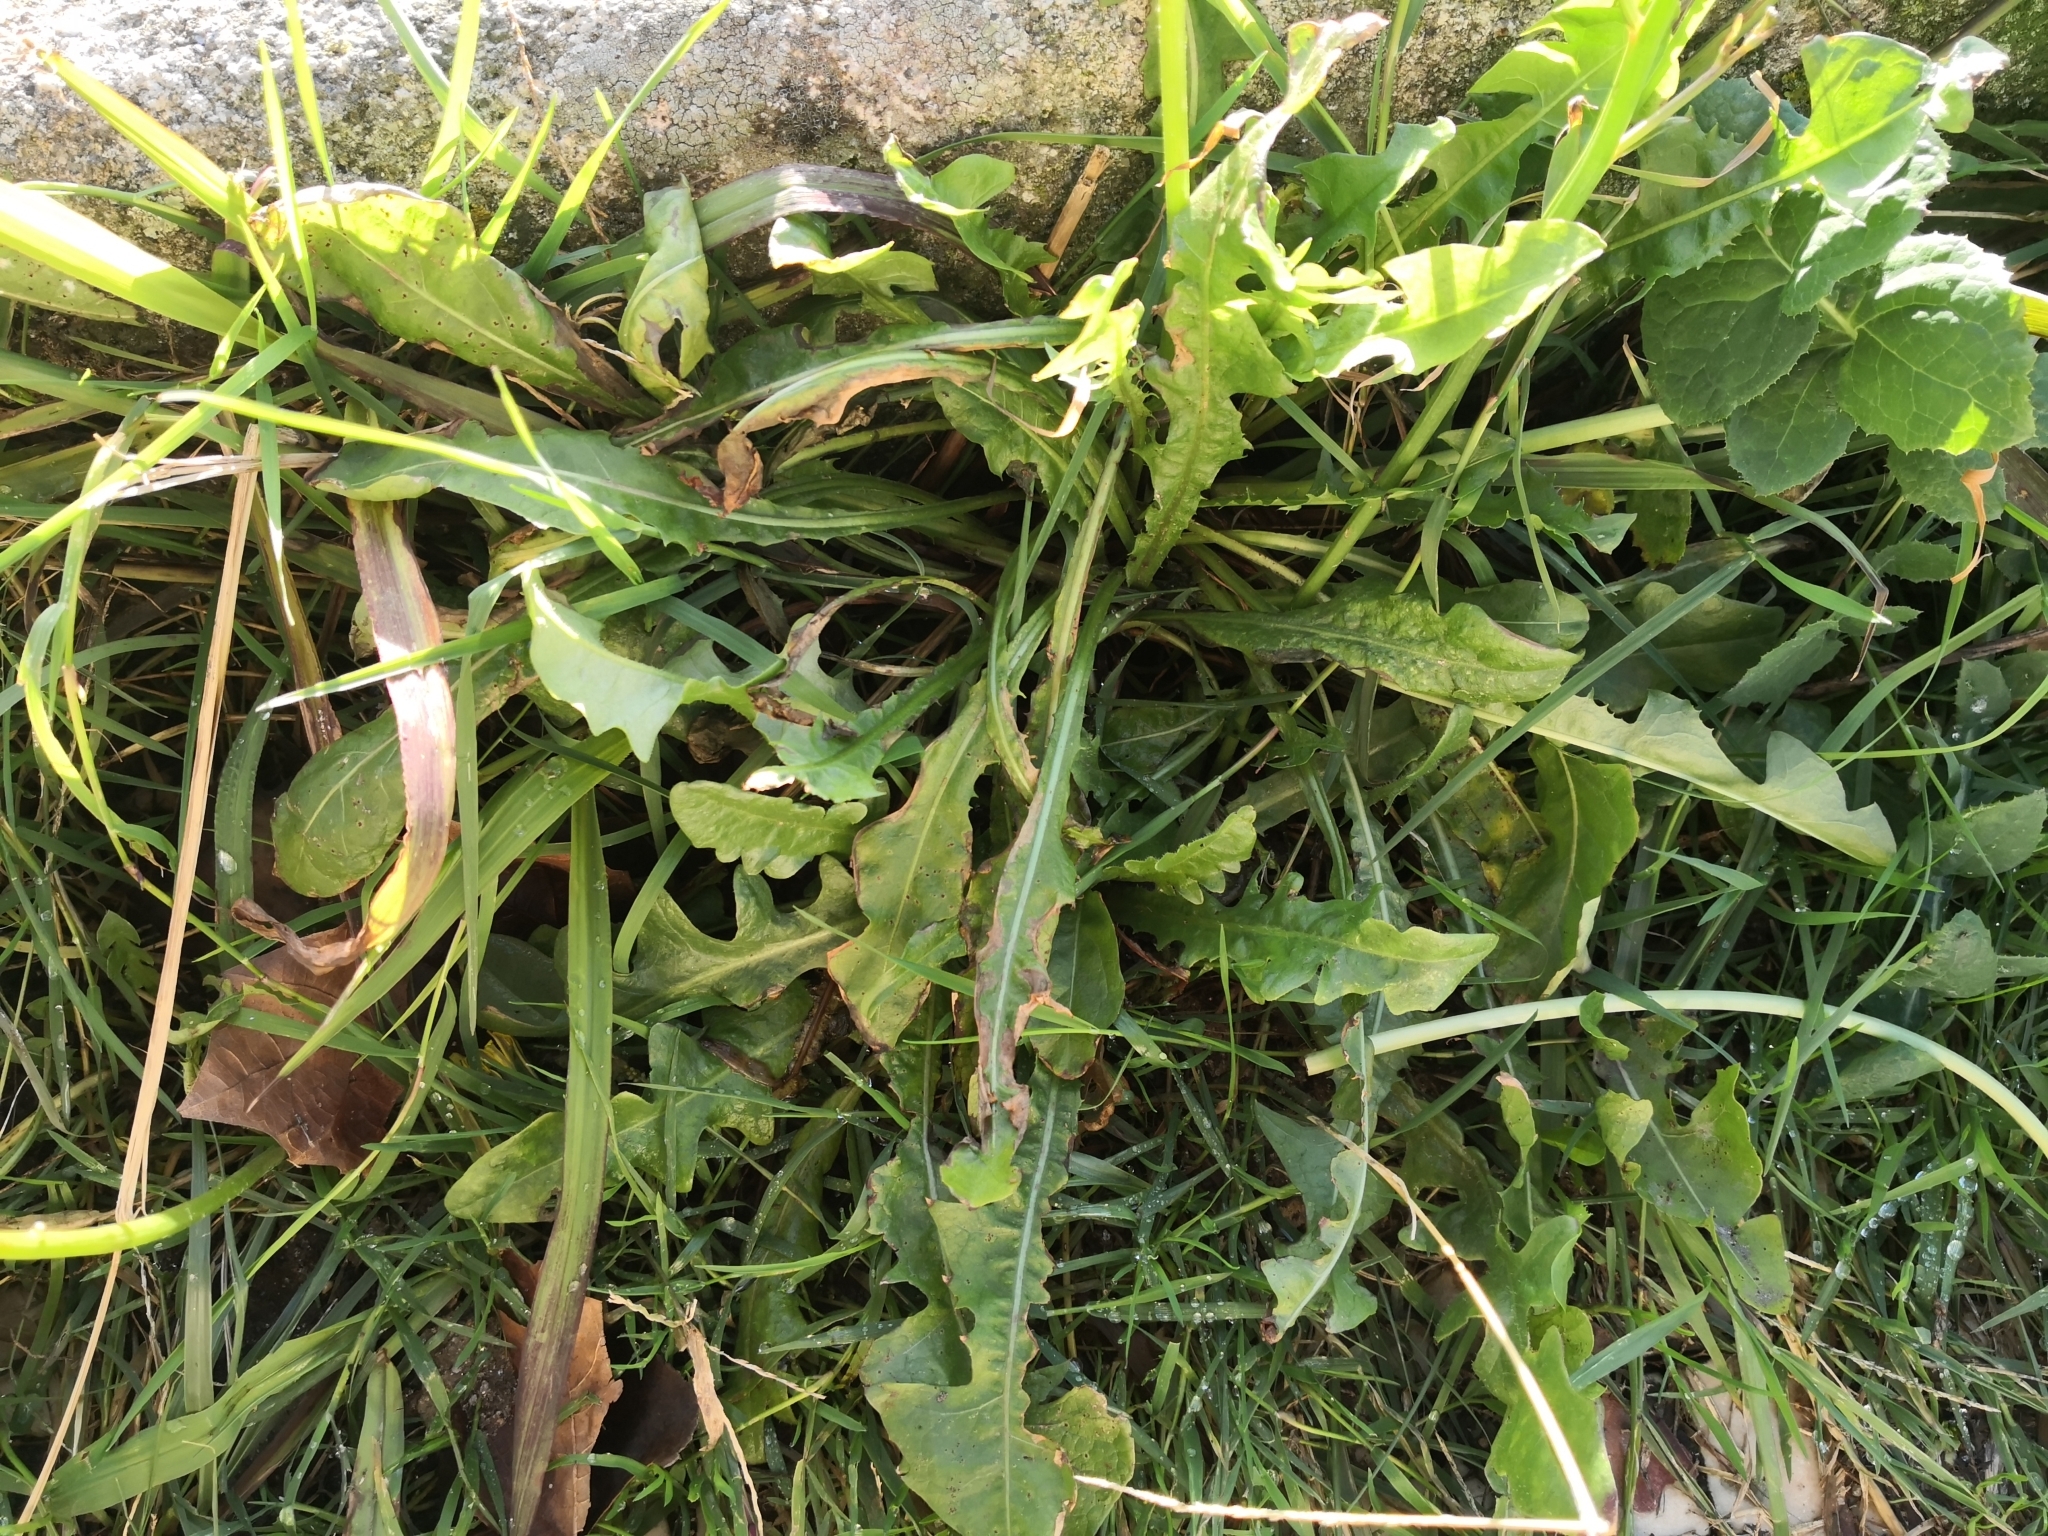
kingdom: Plantae
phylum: Tracheophyta
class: Magnoliopsida
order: Asterales
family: Asteraceae
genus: Taraxacum
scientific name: Taraxacum officinale
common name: Common dandelion
